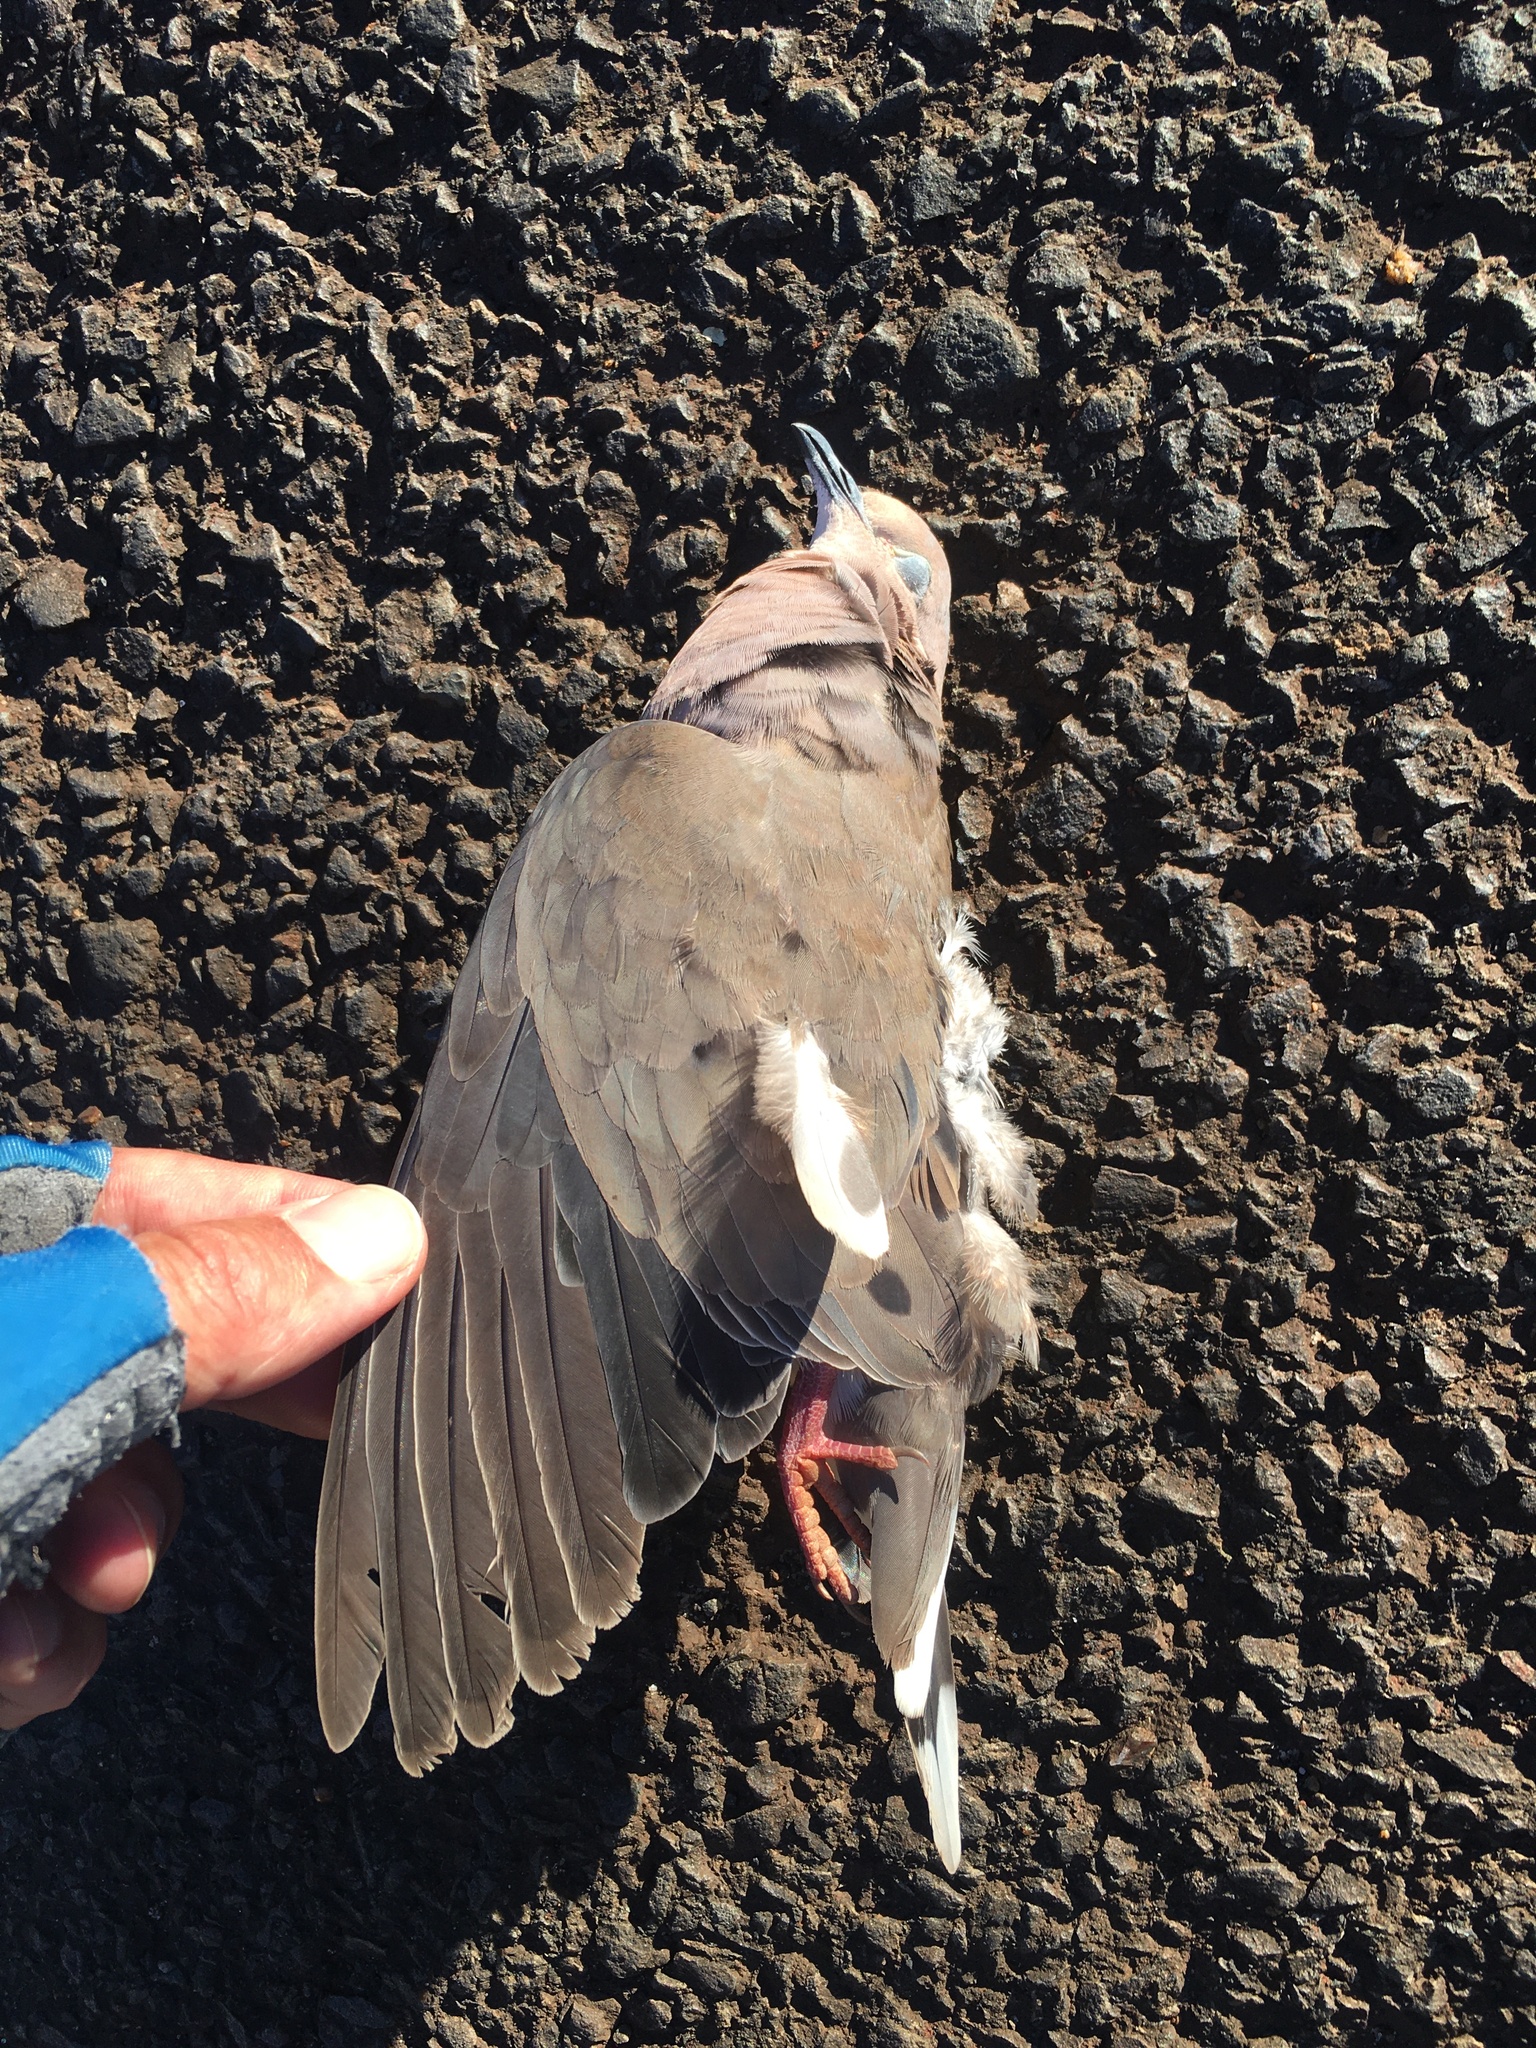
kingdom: Animalia
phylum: Chordata
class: Aves
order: Columbiformes
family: Columbidae
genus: Zenaida
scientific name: Zenaida auriculata
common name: Eared dove
